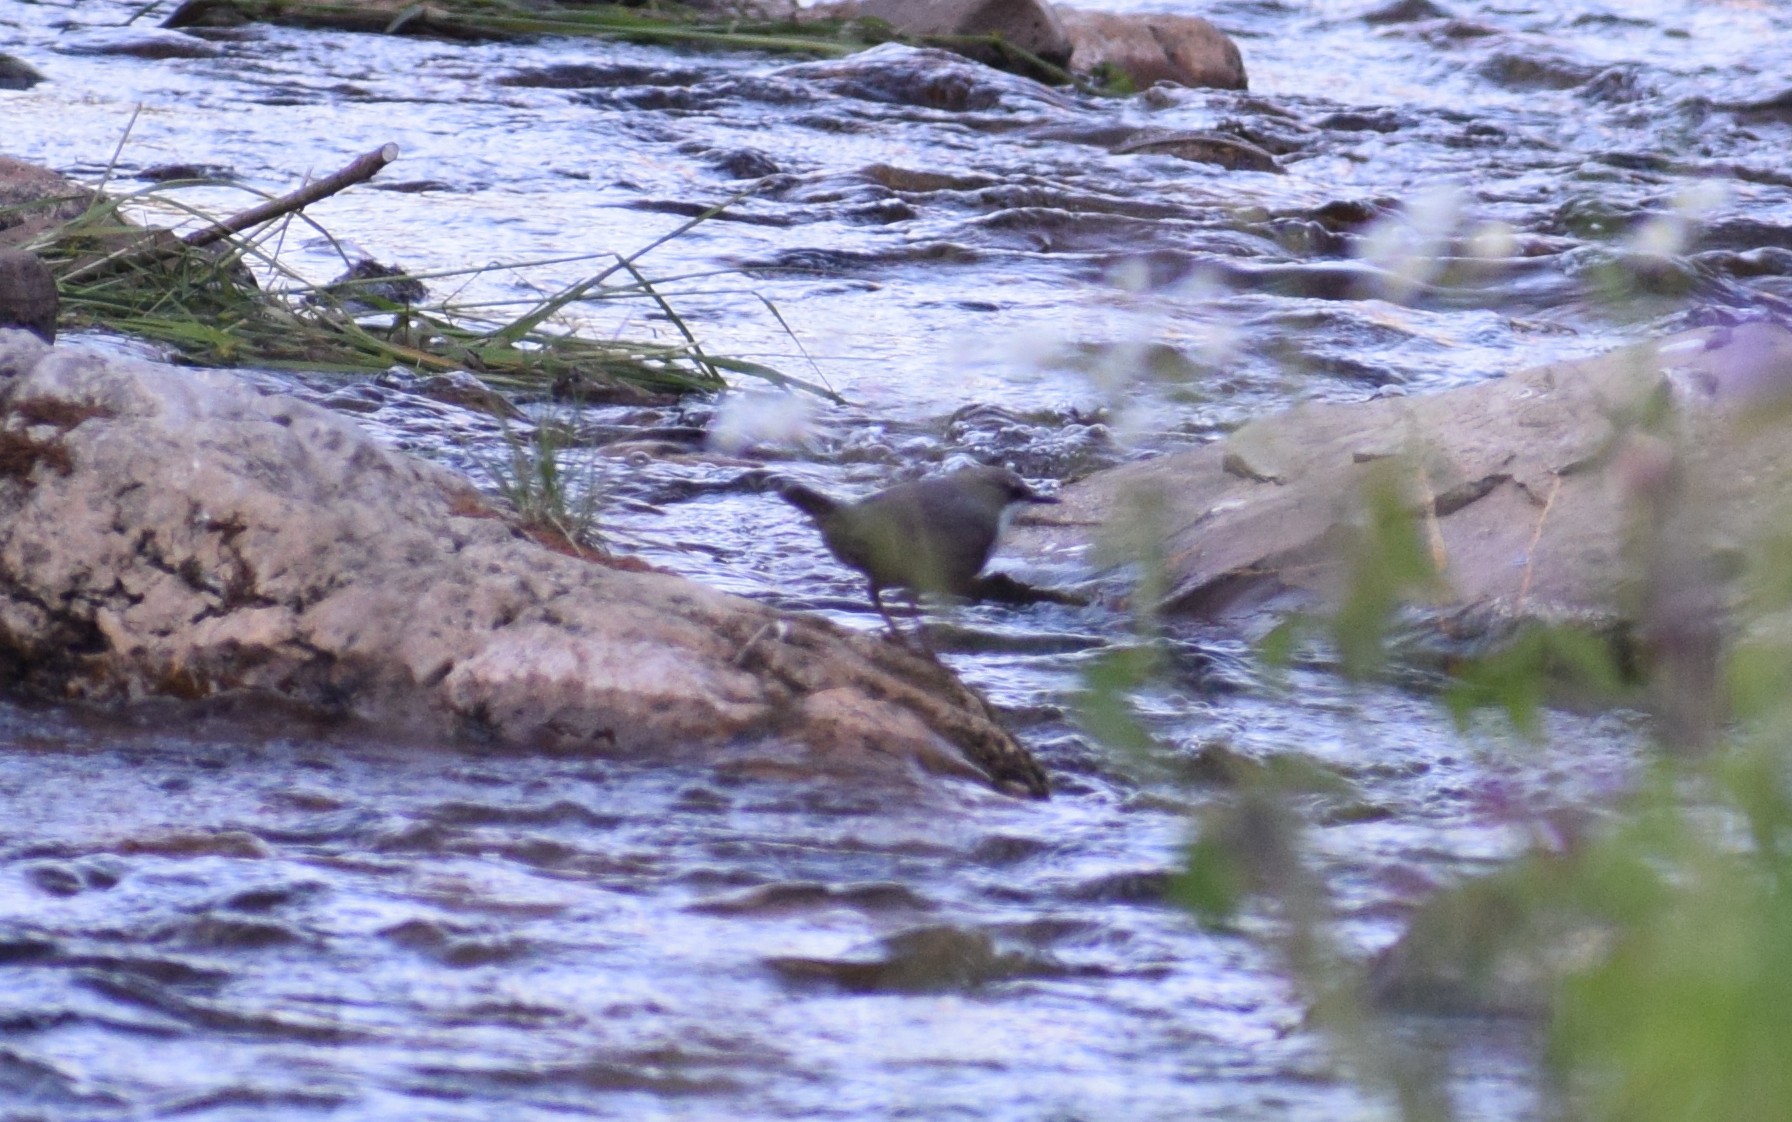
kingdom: Animalia
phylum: Chordata
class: Aves
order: Passeriformes
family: Cinclidae
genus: Cinclus
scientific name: Cinclus cinclus
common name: White-throated dipper
